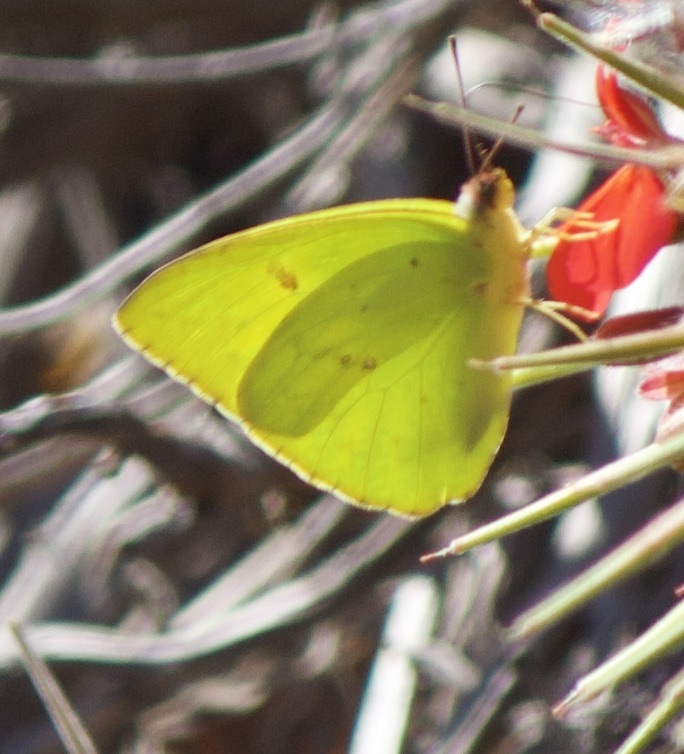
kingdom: Animalia
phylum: Arthropoda
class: Insecta
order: Lepidoptera
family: Pieridae
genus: Phoebis
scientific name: Phoebis sennae
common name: Cloudless sulphur
